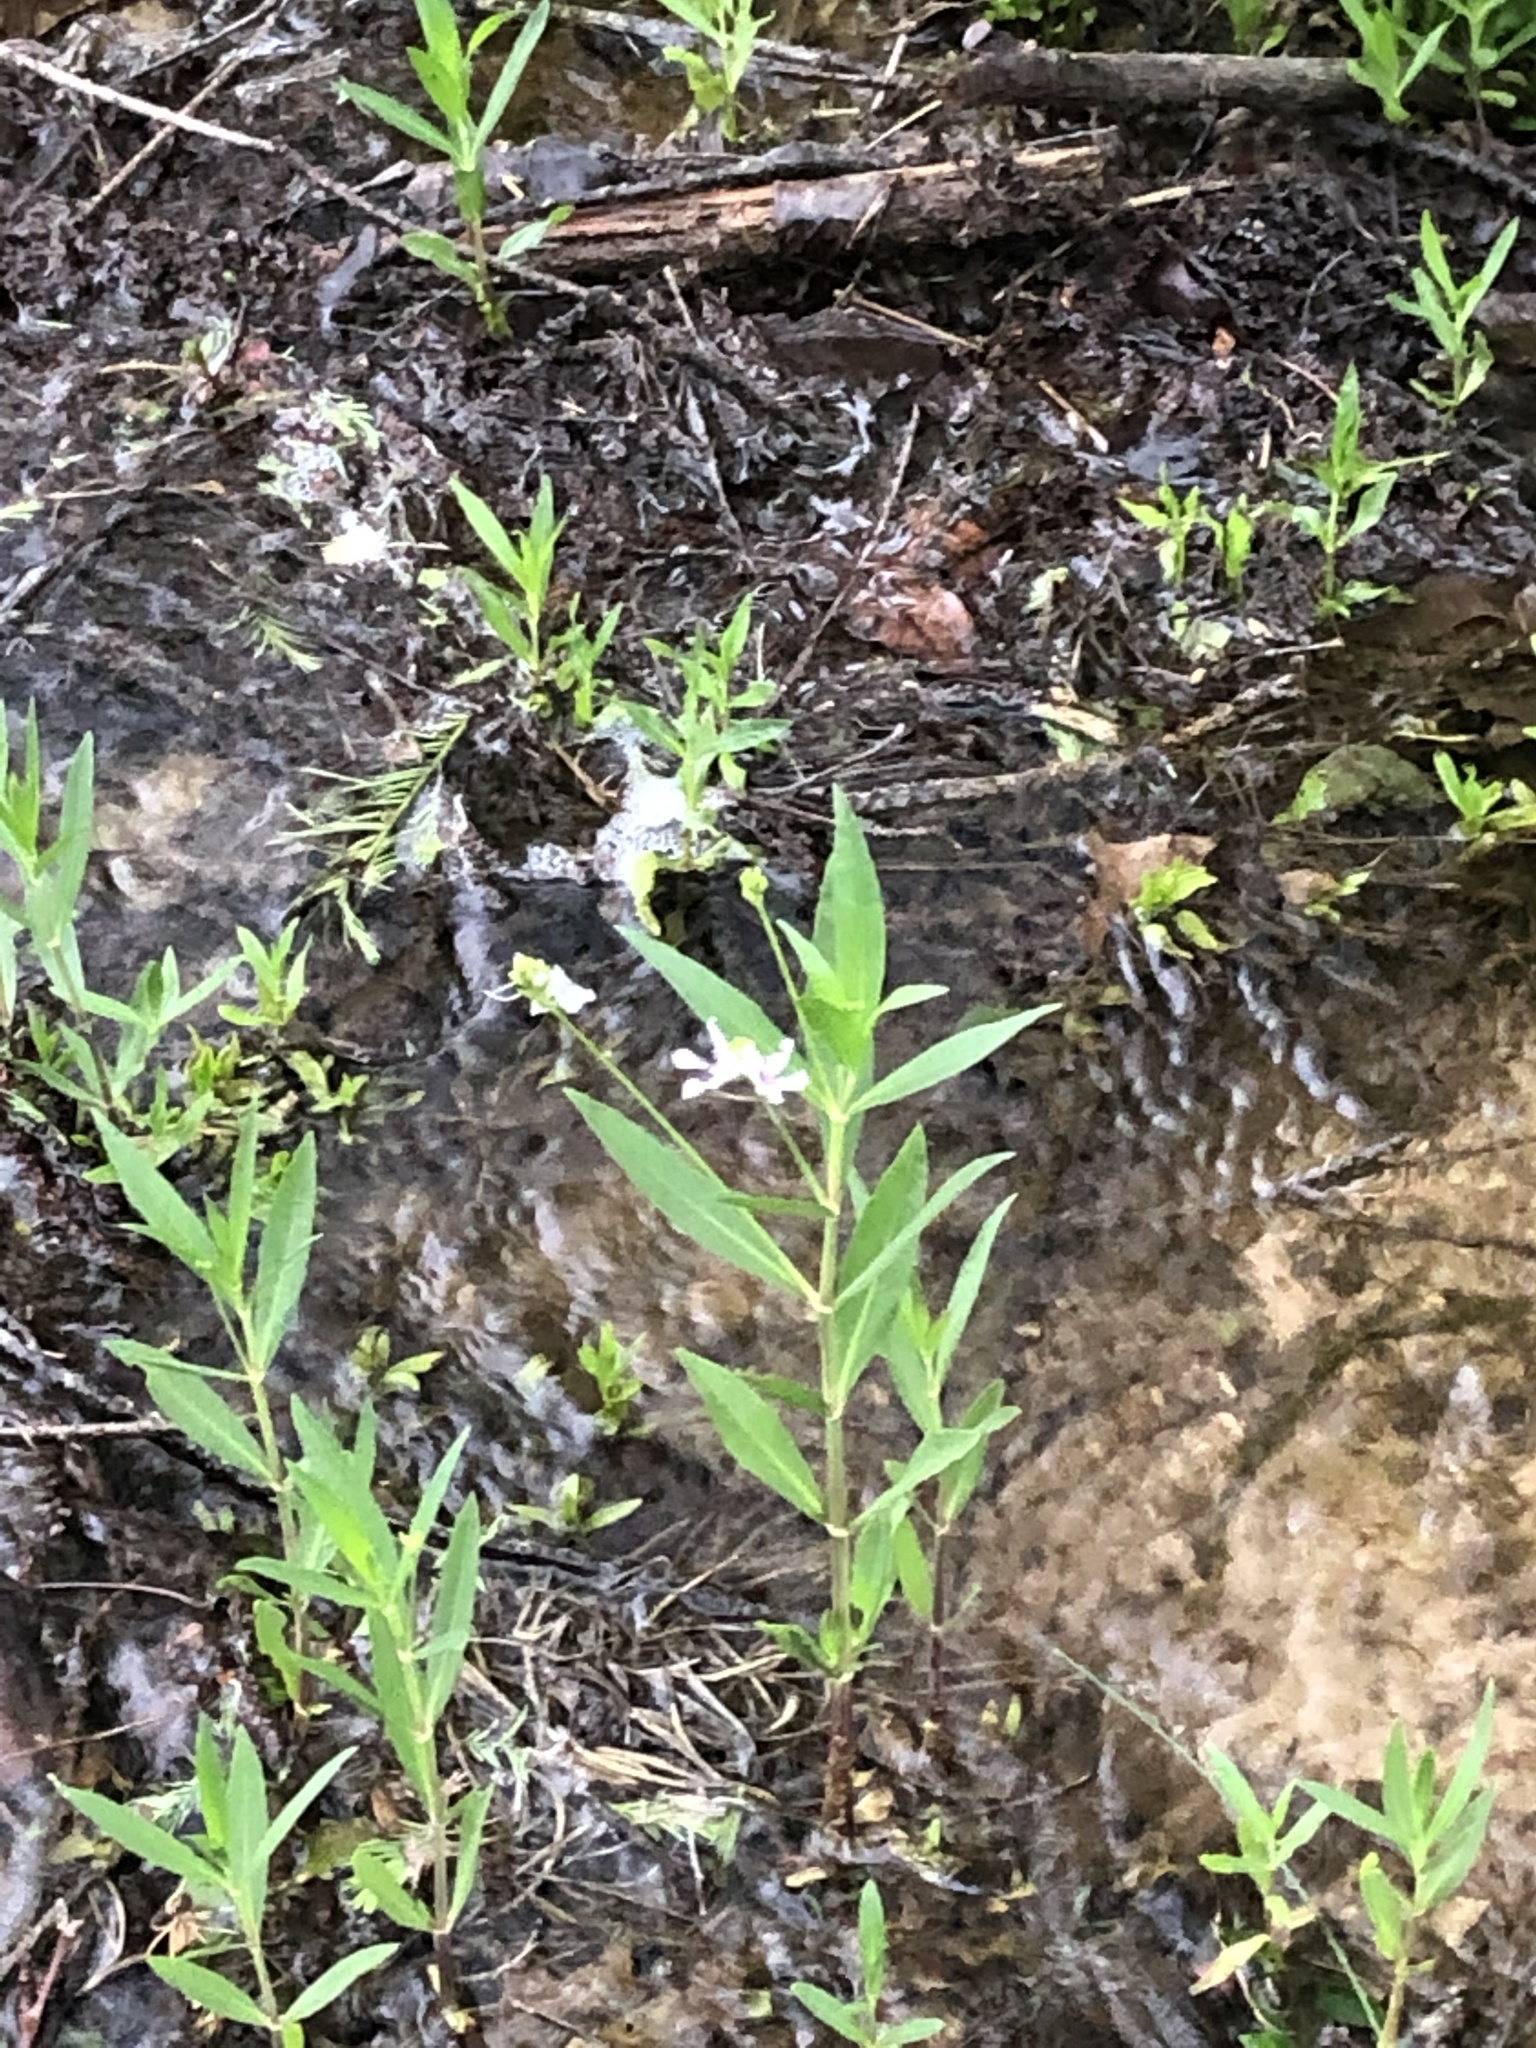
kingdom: Plantae
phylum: Tracheophyta
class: Magnoliopsida
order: Lamiales
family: Acanthaceae
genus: Dianthera
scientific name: Dianthera americana
